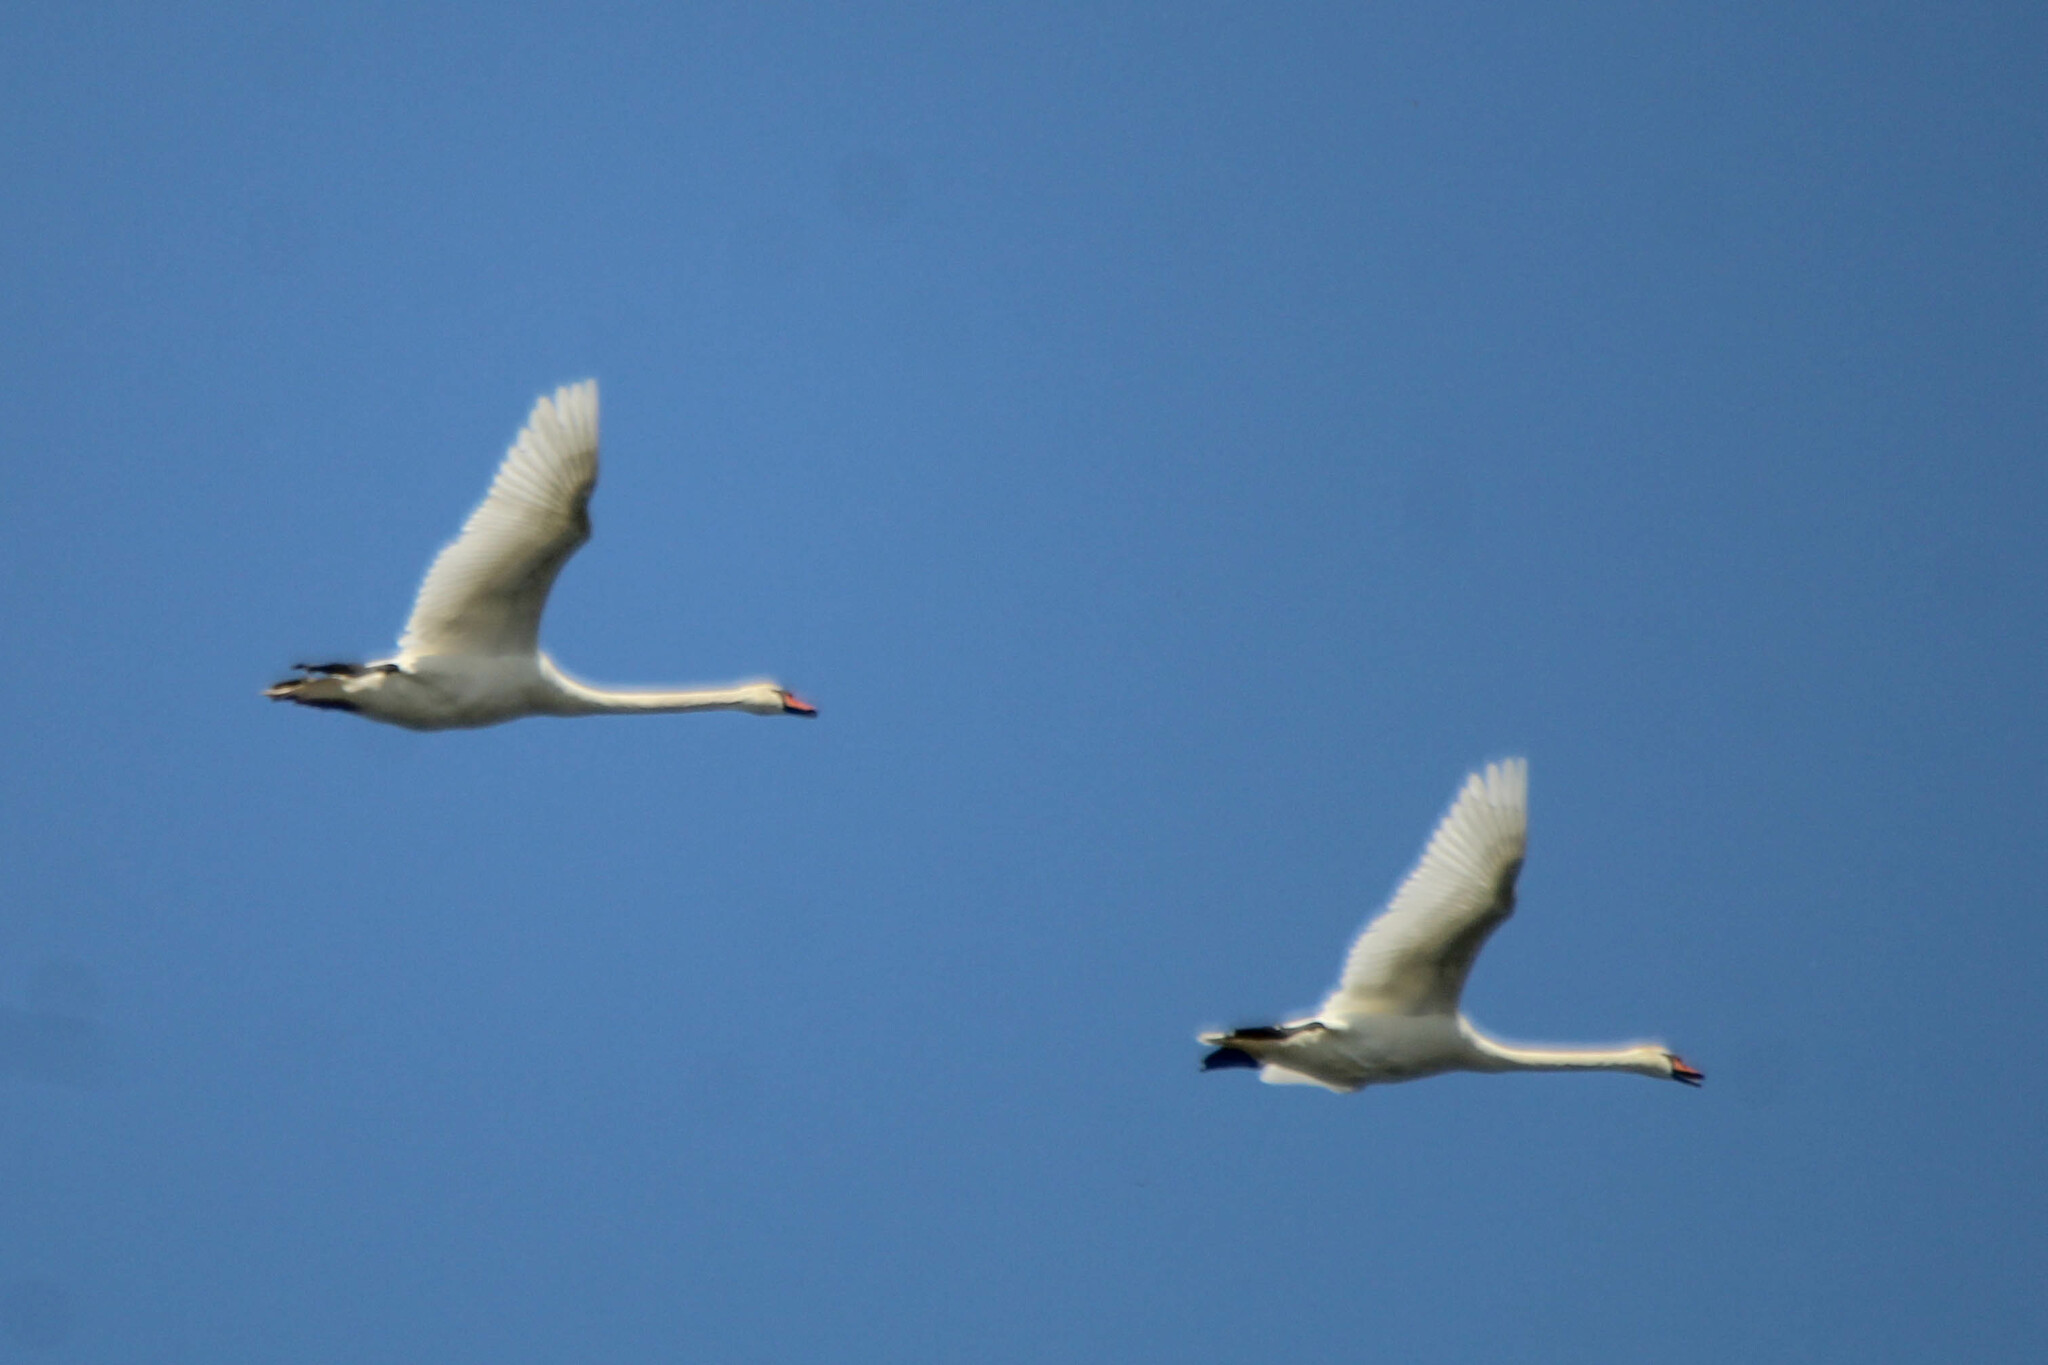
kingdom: Animalia
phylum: Chordata
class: Aves
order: Anseriformes
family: Anatidae
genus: Cygnus
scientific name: Cygnus olor
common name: Mute swan
